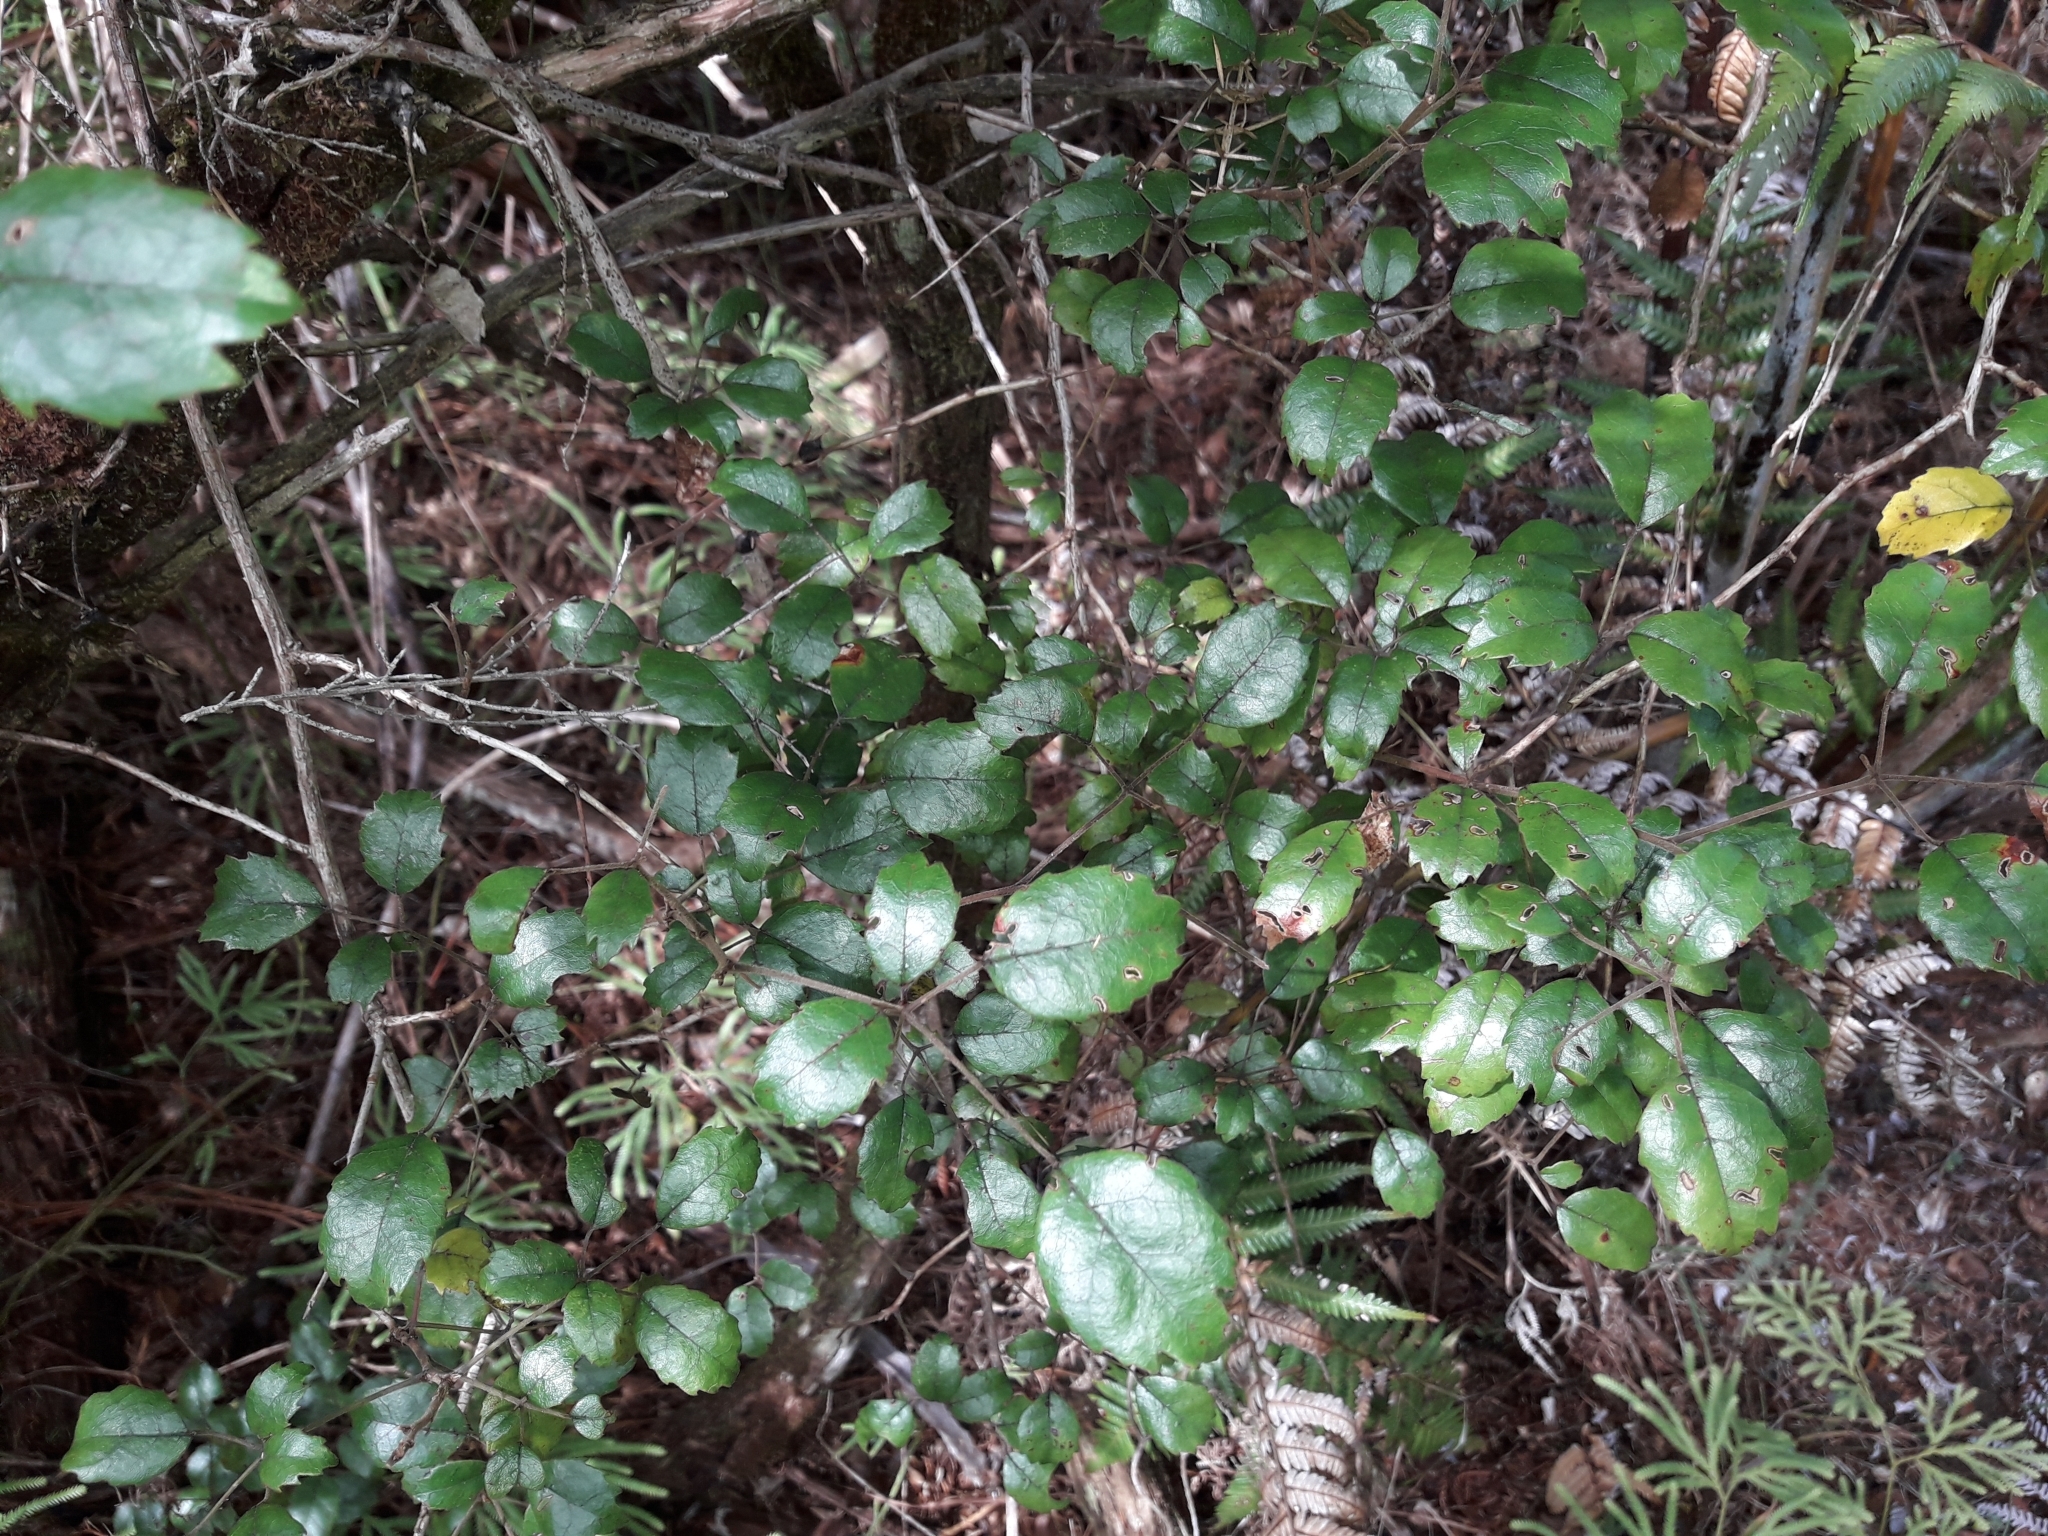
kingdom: Plantae
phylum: Tracheophyta
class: Magnoliopsida
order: Rosales
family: Rosaceae
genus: Rubus
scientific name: Rubus australis
